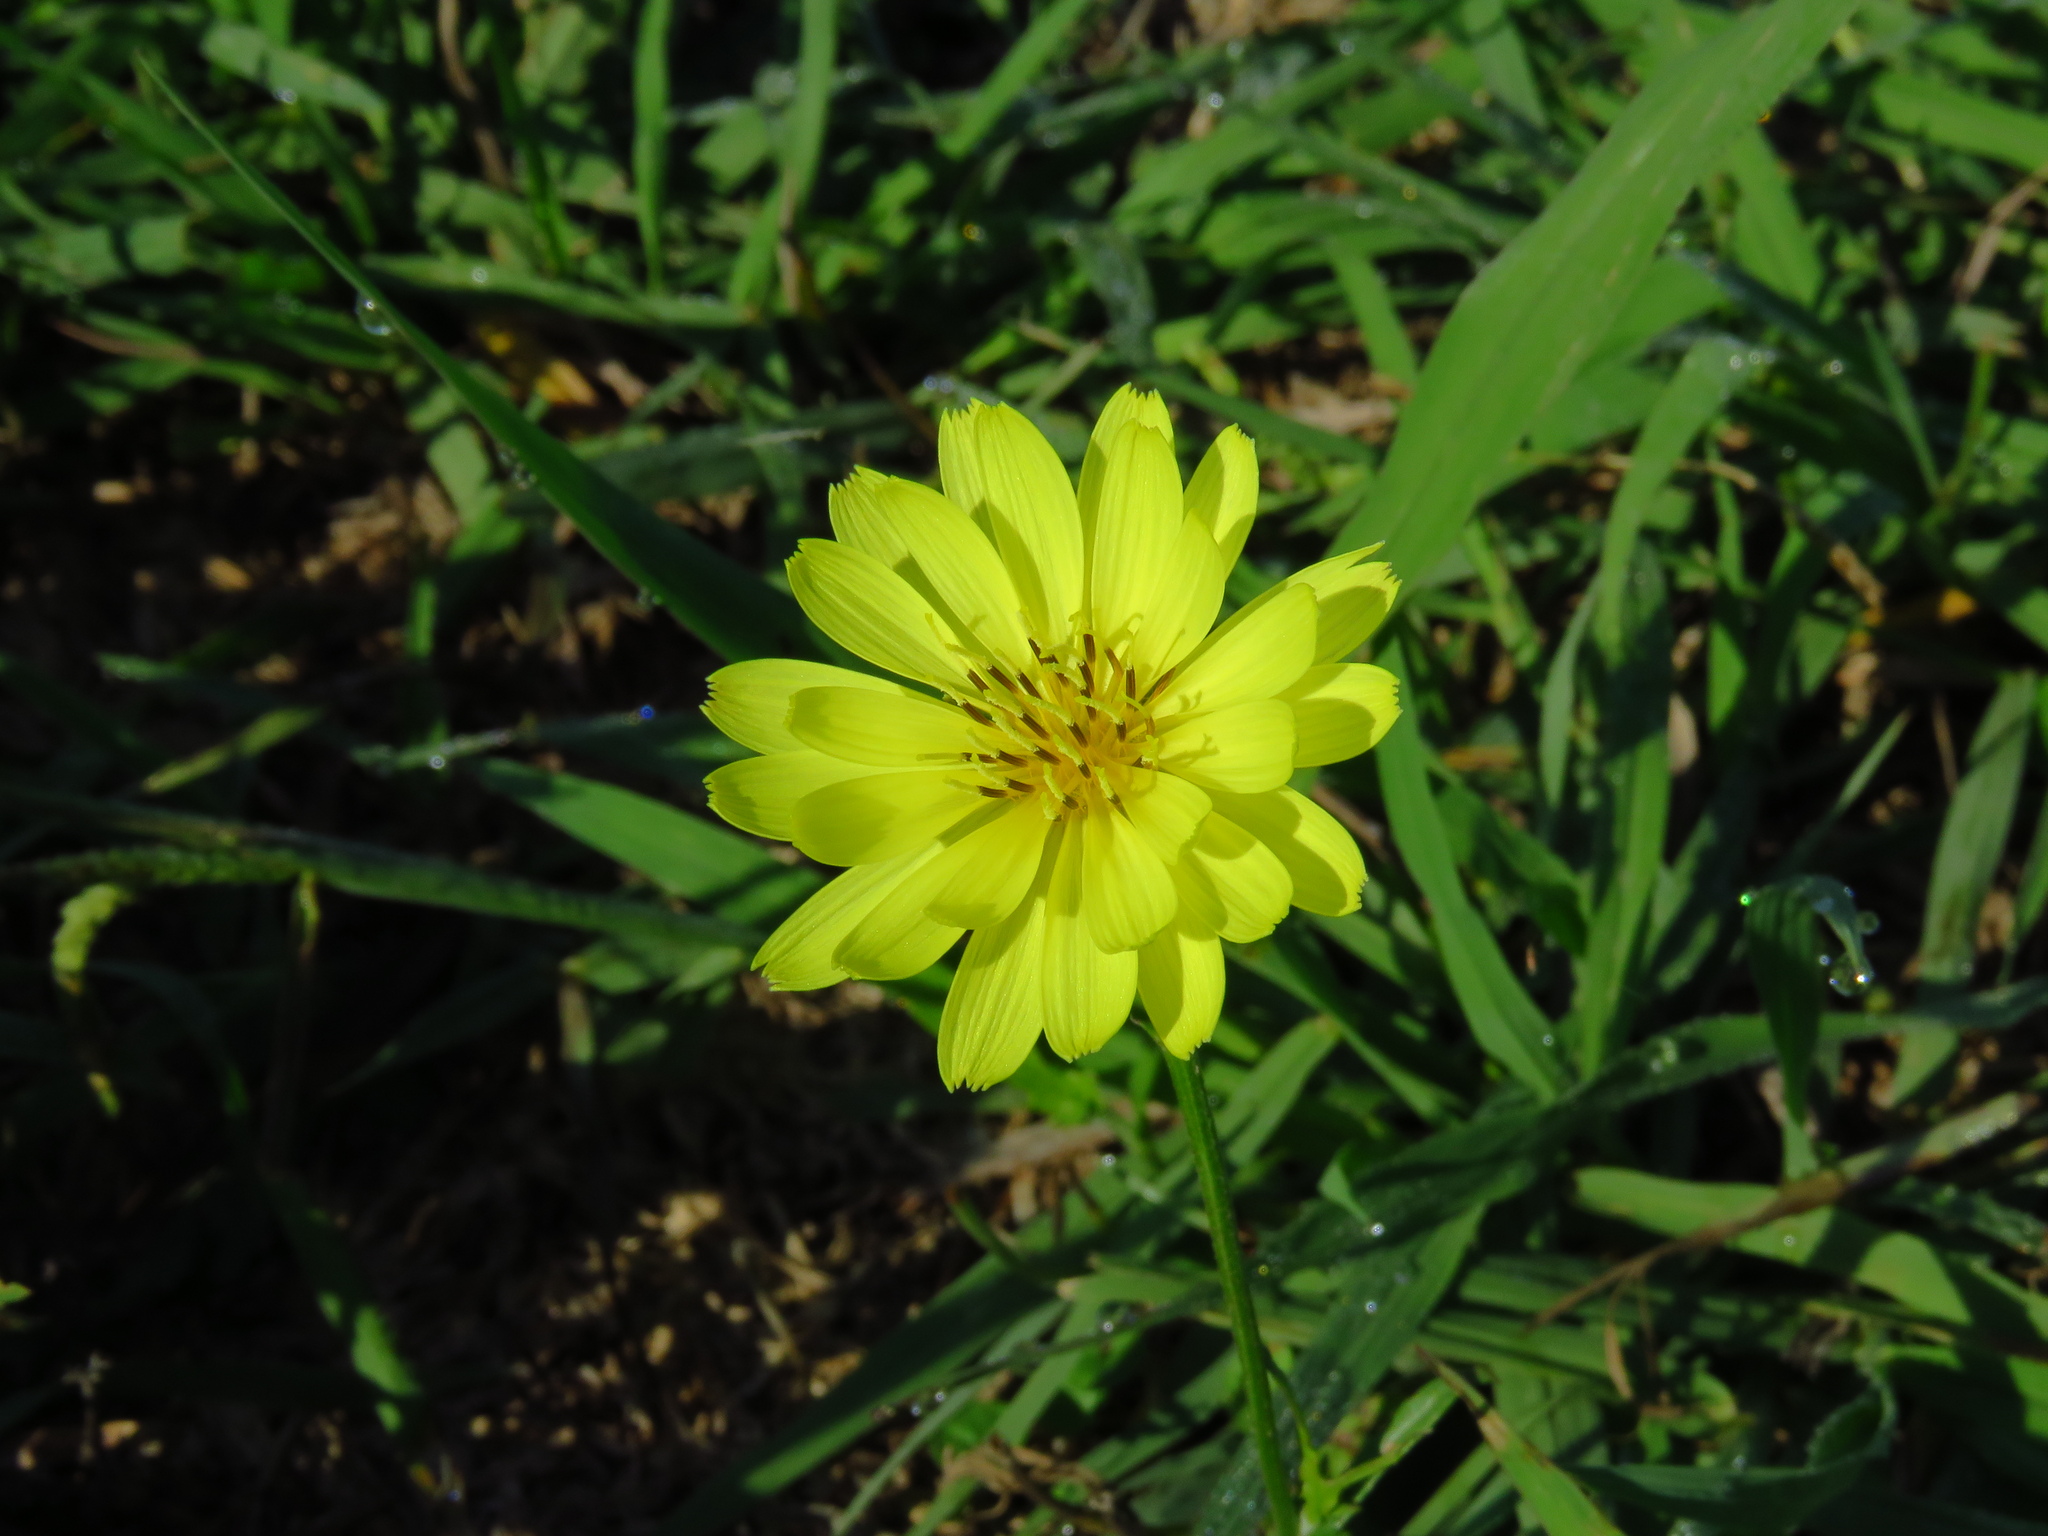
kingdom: Plantae
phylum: Tracheophyta
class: Magnoliopsida
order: Asterales
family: Asteraceae
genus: Pyrrhopappus
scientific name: Pyrrhopappus pauciflorus
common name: Texas false dandelion
